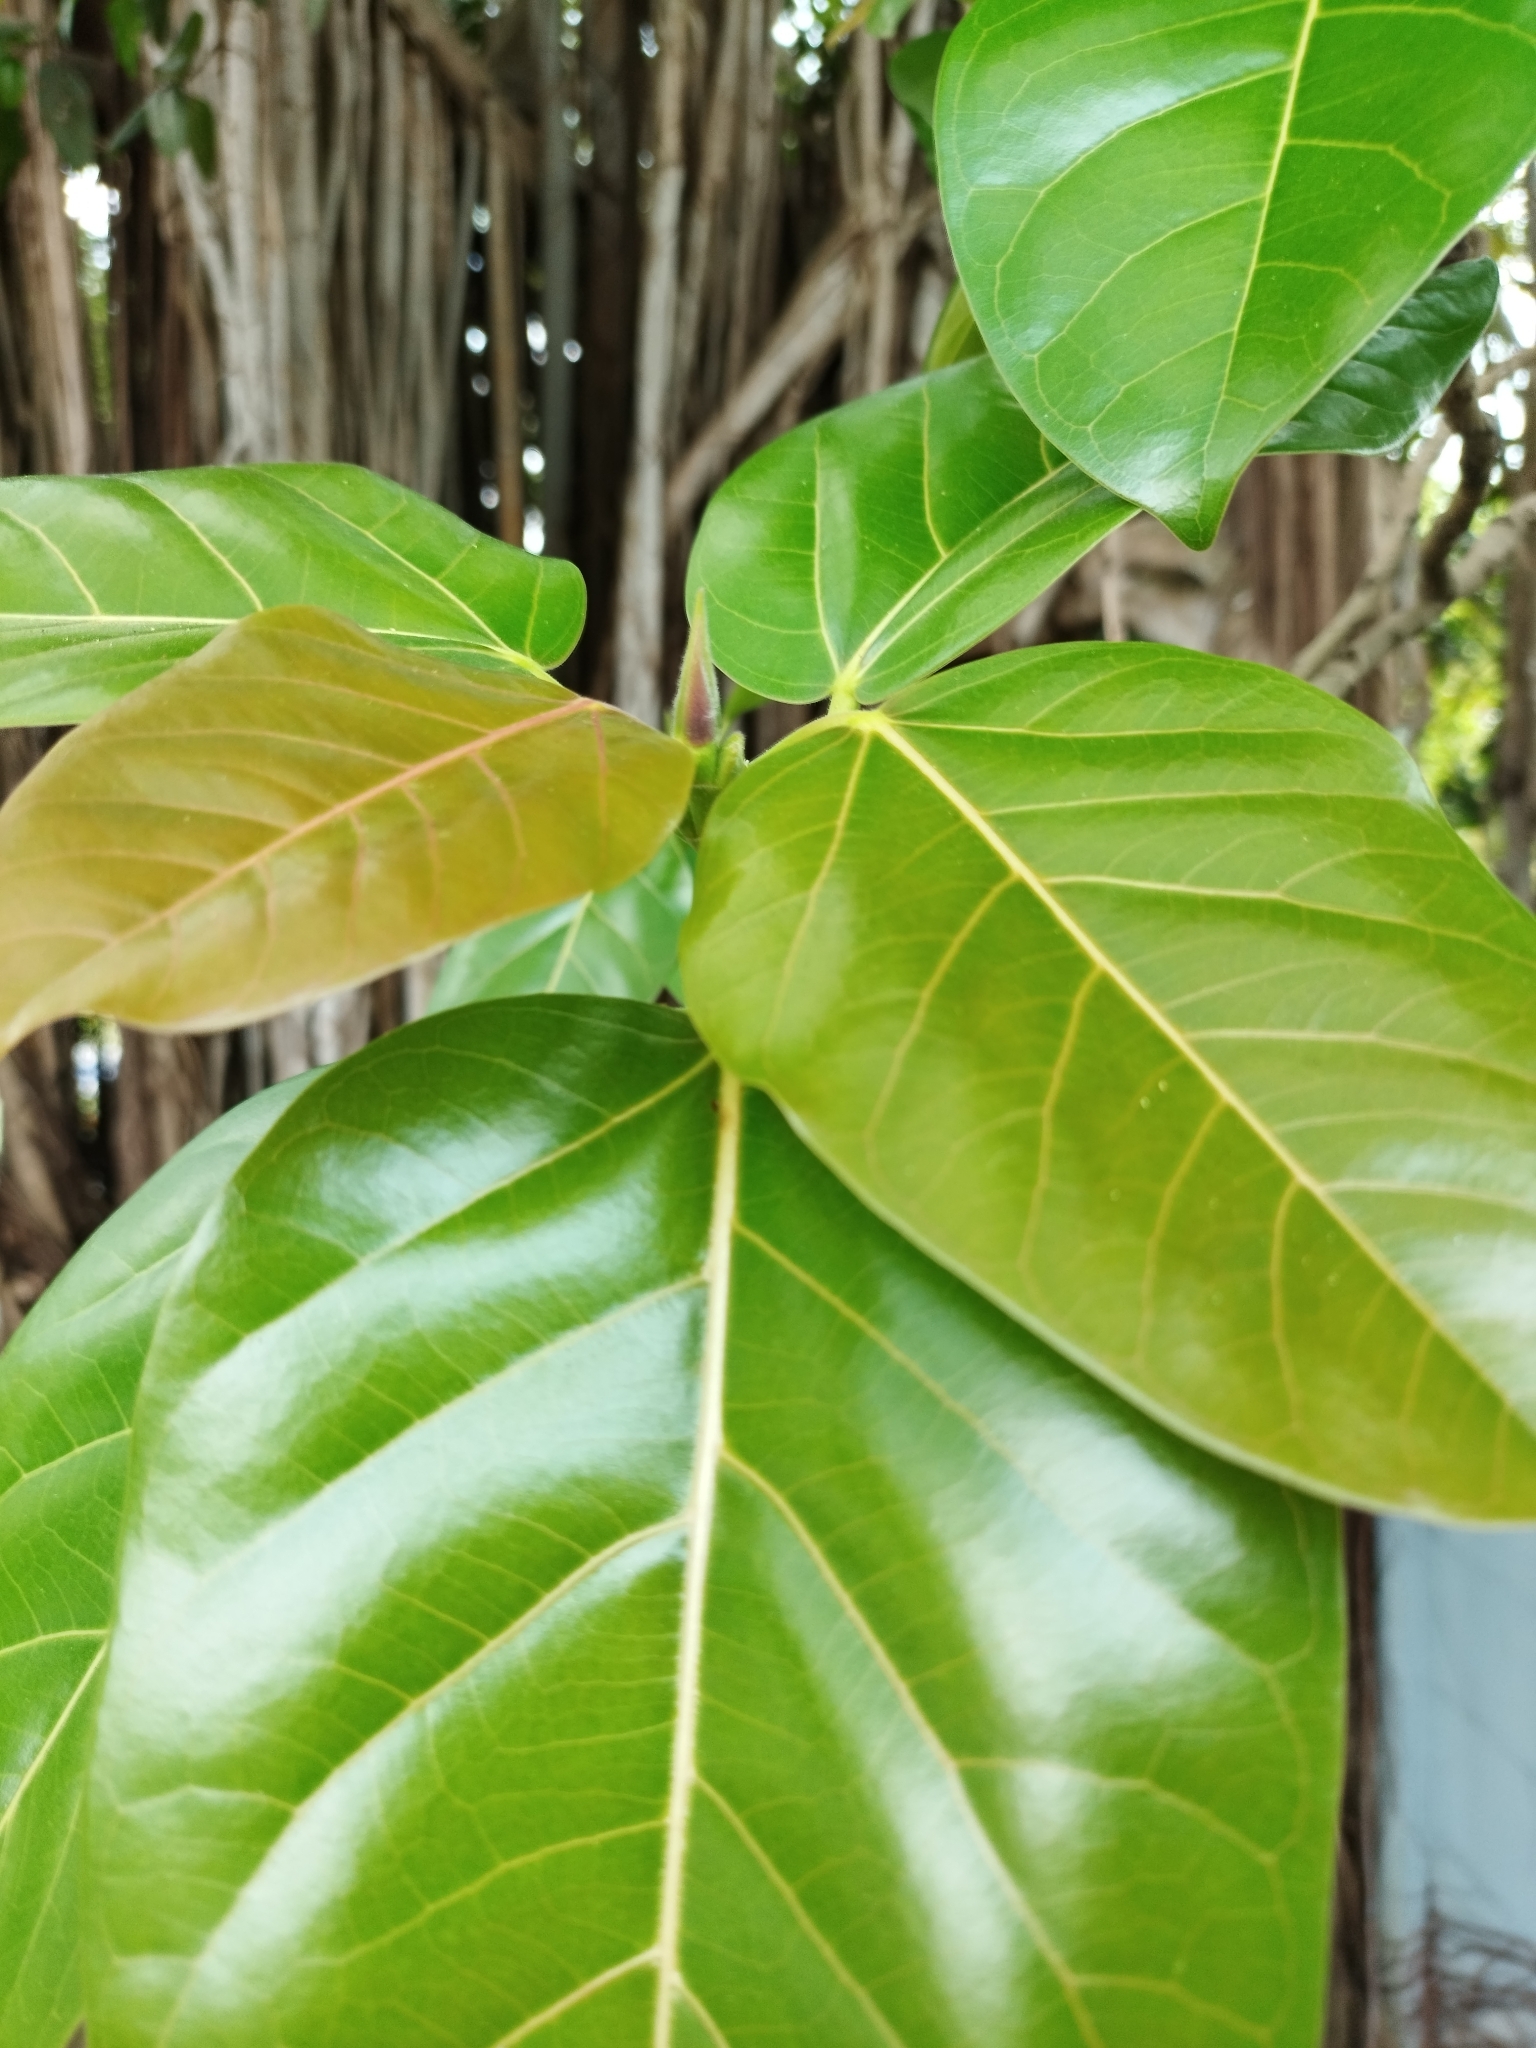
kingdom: Plantae
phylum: Tracheophyta
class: Magnoliopsida
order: Rosales
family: Moraceae
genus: Ficus
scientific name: Ficus benghalensis
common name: Indian banyan
